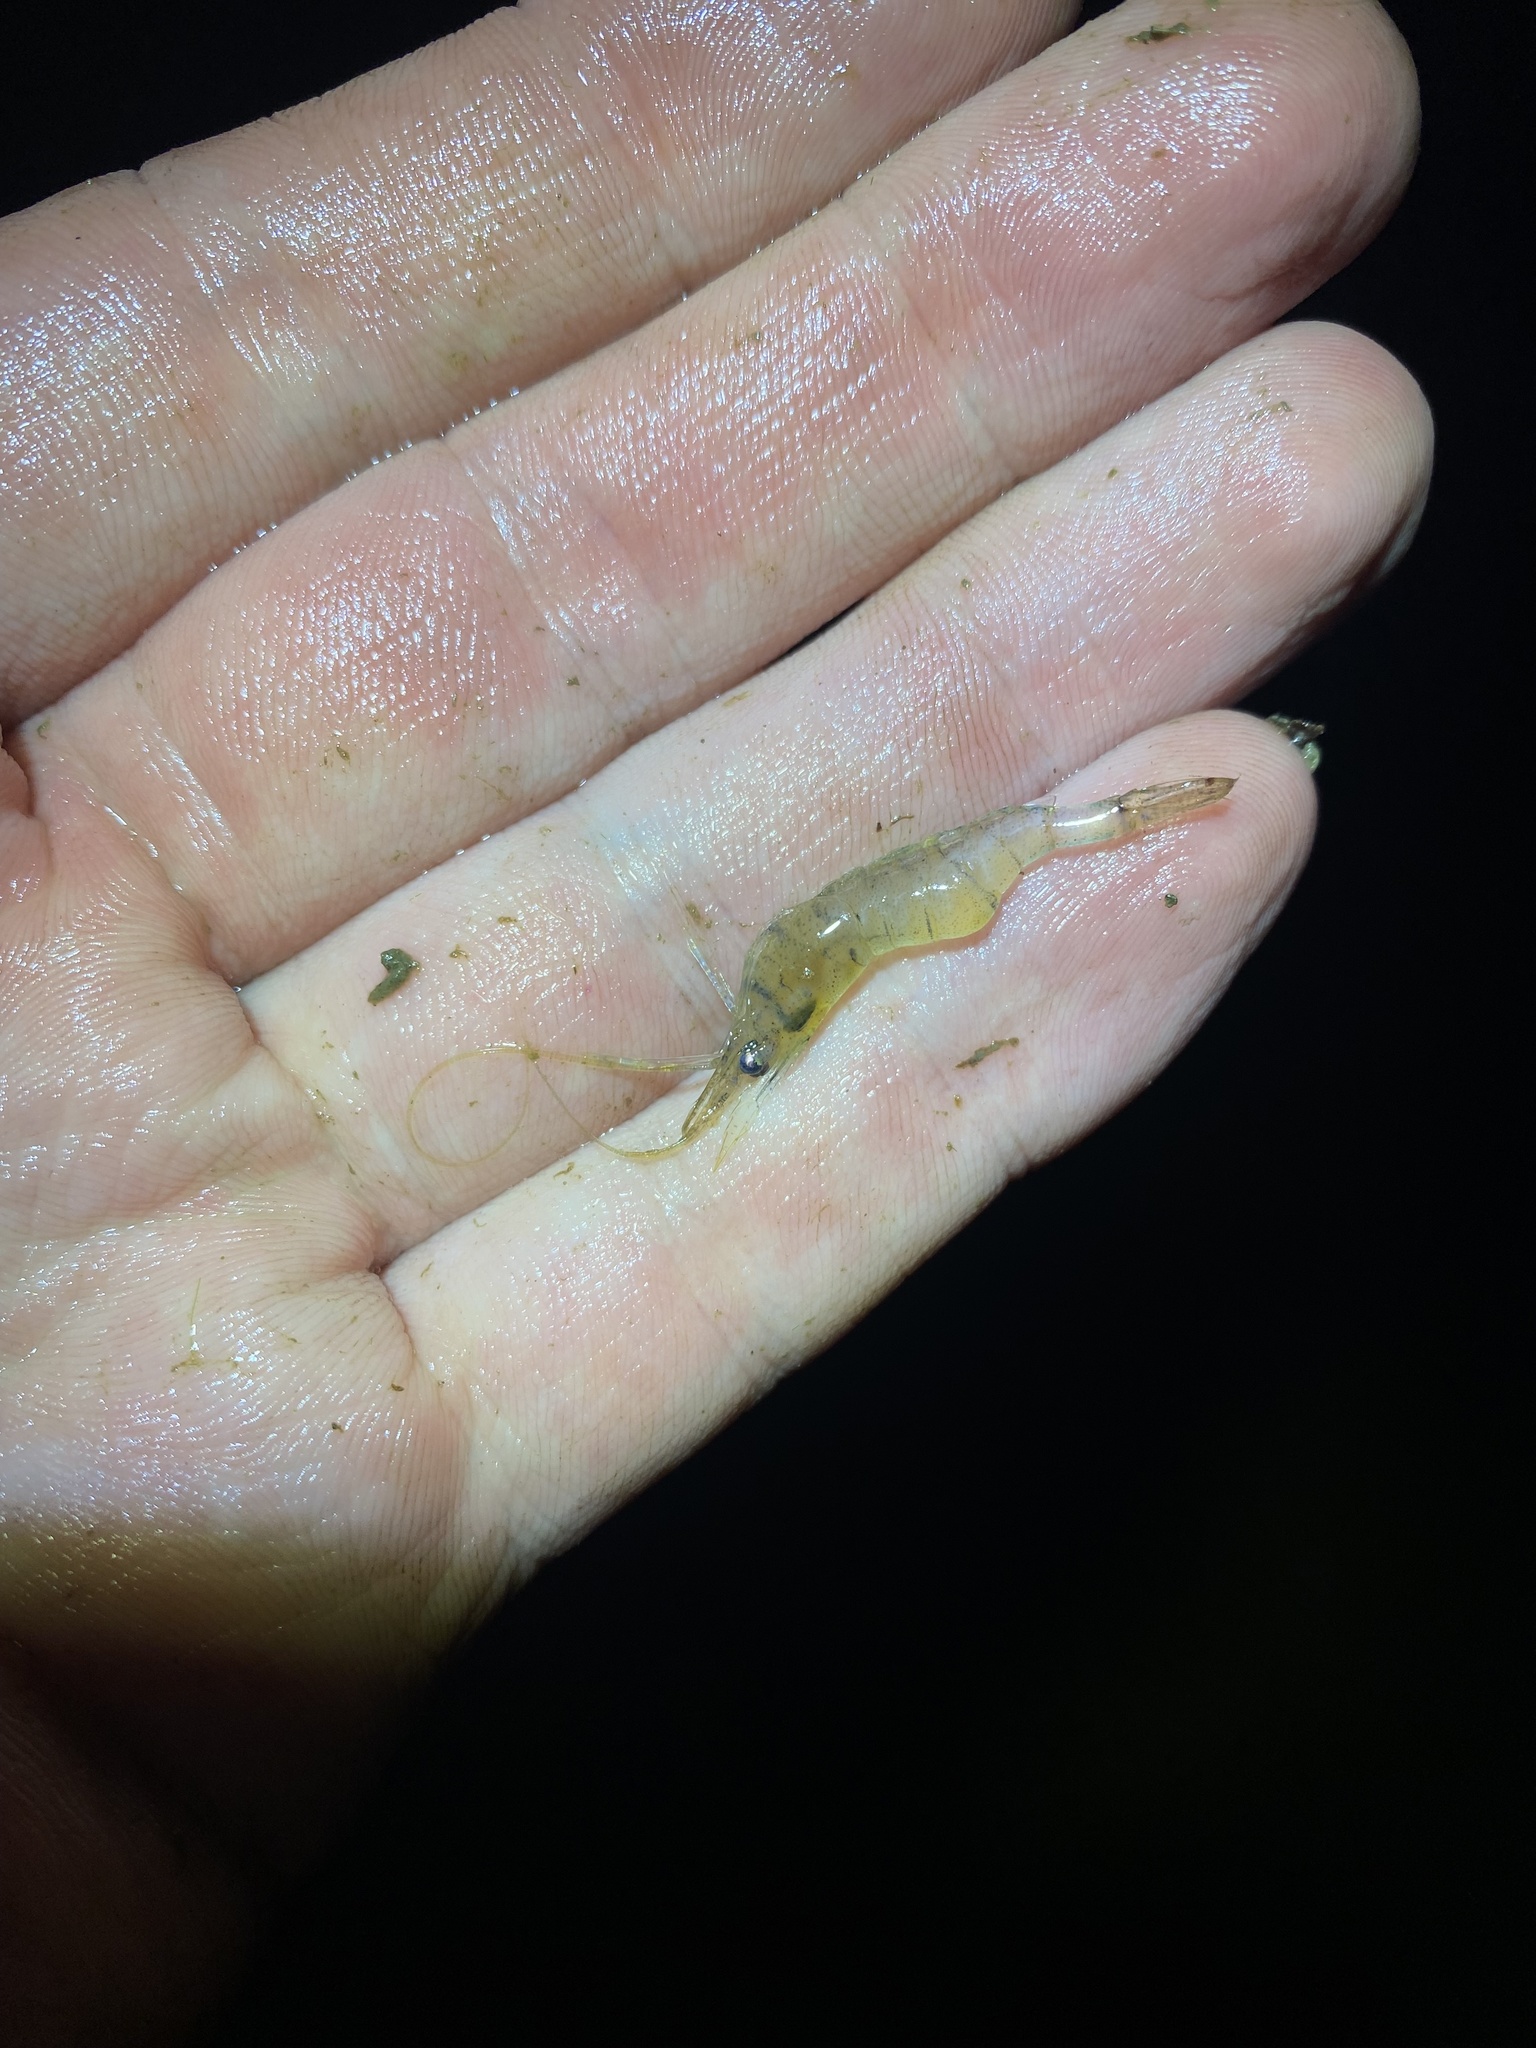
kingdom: Animalia
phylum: Arthropoda
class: Malacostraca
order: Decapoda
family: Palaemonidae
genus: Palaemon
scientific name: Palaemon paludosus
